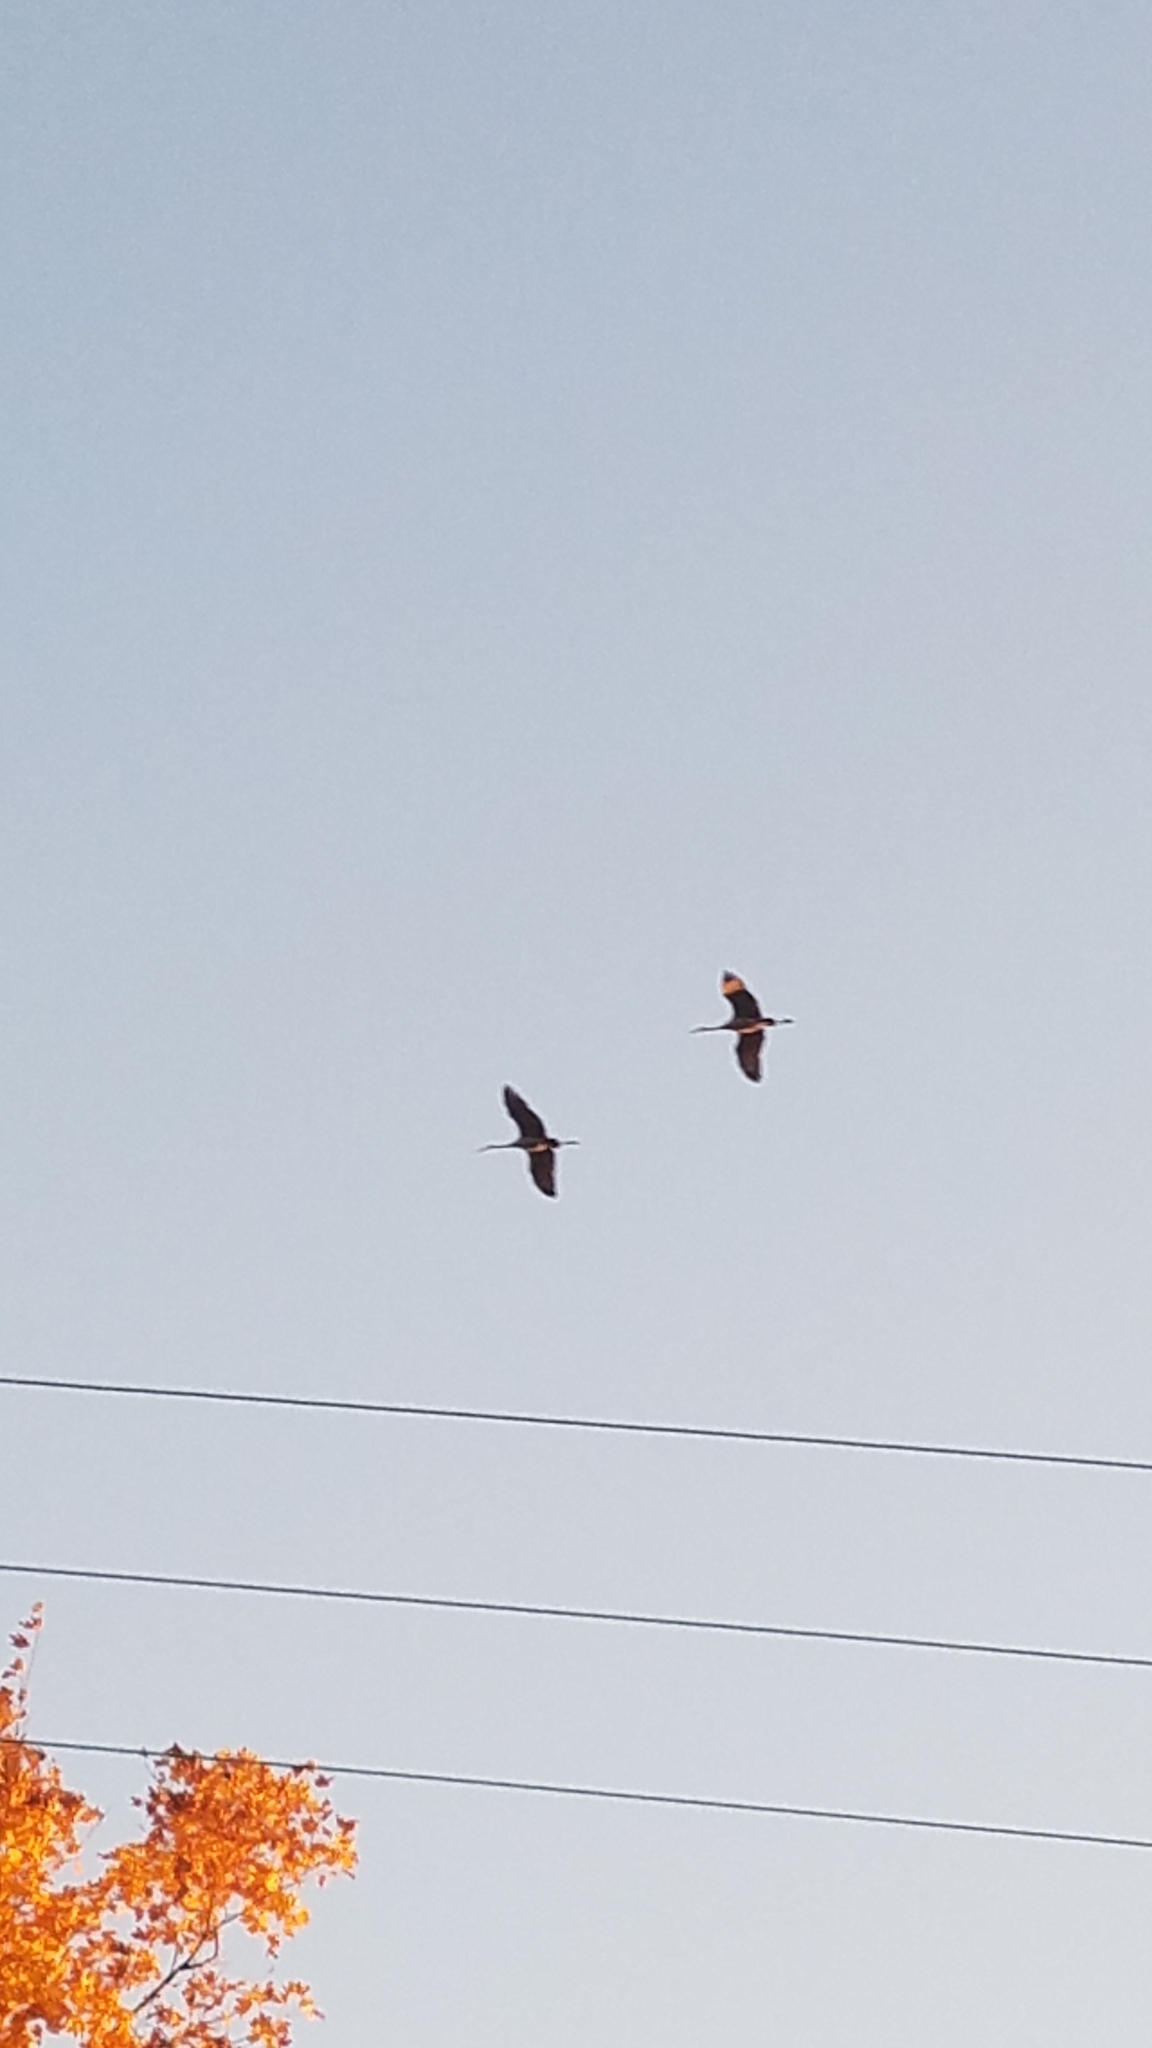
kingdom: Animalia
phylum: Chordata
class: Aves
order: Gruiformes
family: Gruidae
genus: Grus
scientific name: Grus canadensis
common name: Sandhill crane
